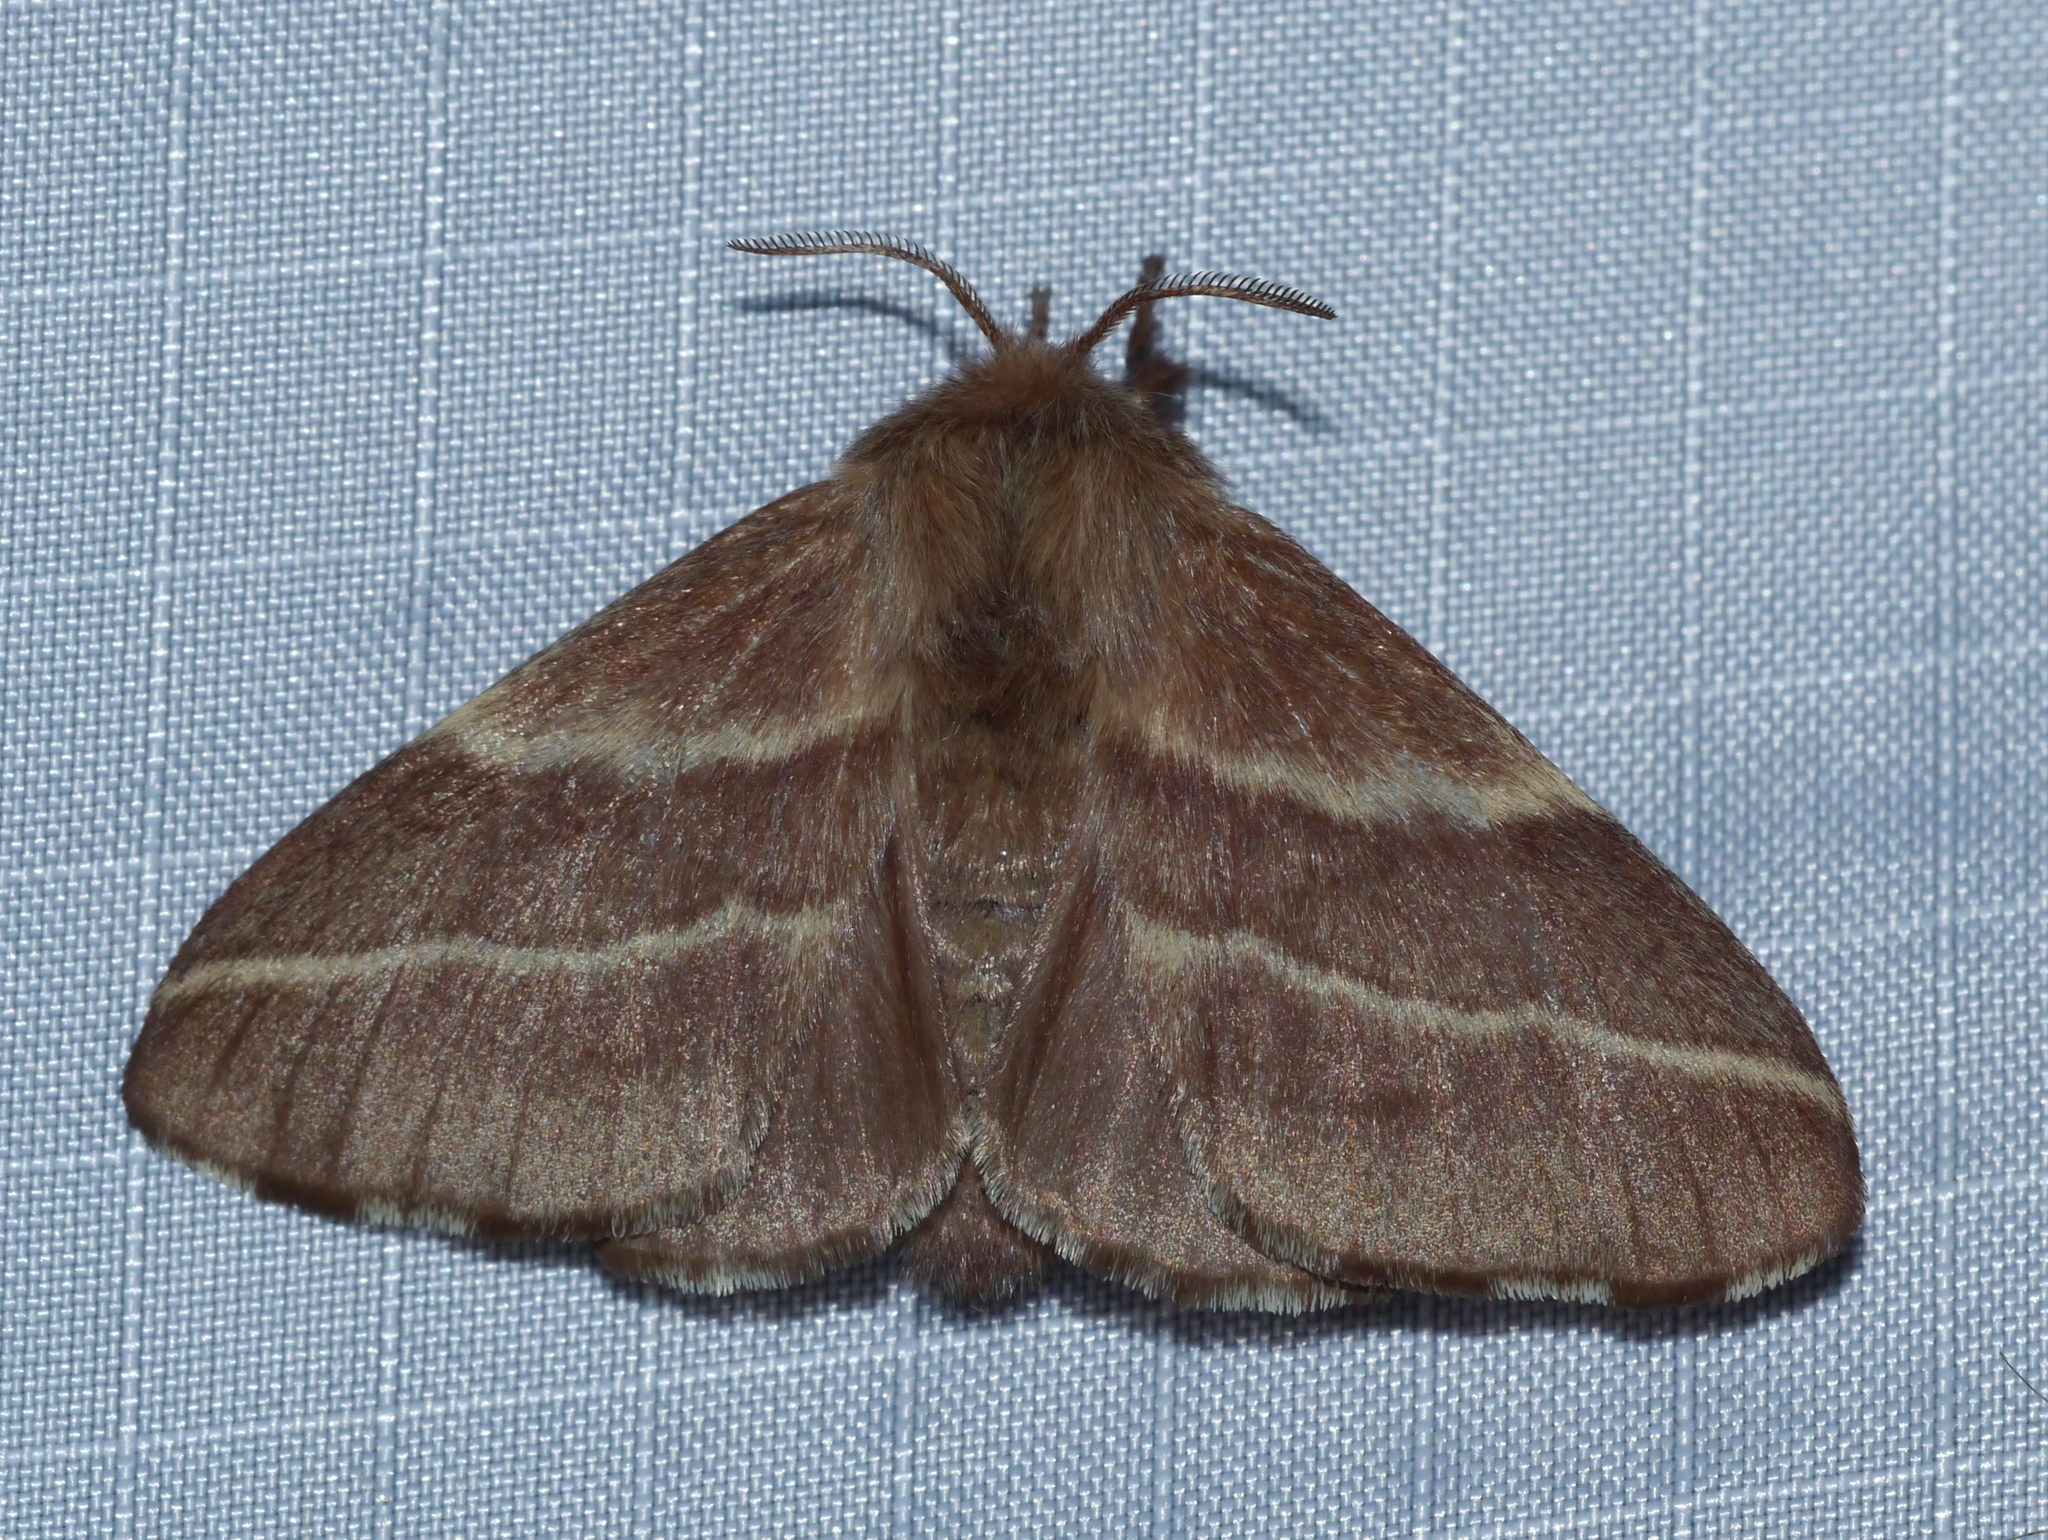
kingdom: Animalia
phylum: Arthropoda
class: Insecta
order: Lepidoptera
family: Lasiocampidae
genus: Malacosoma
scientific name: Malacosoma americana
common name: Eastern tent caterpillar moth
